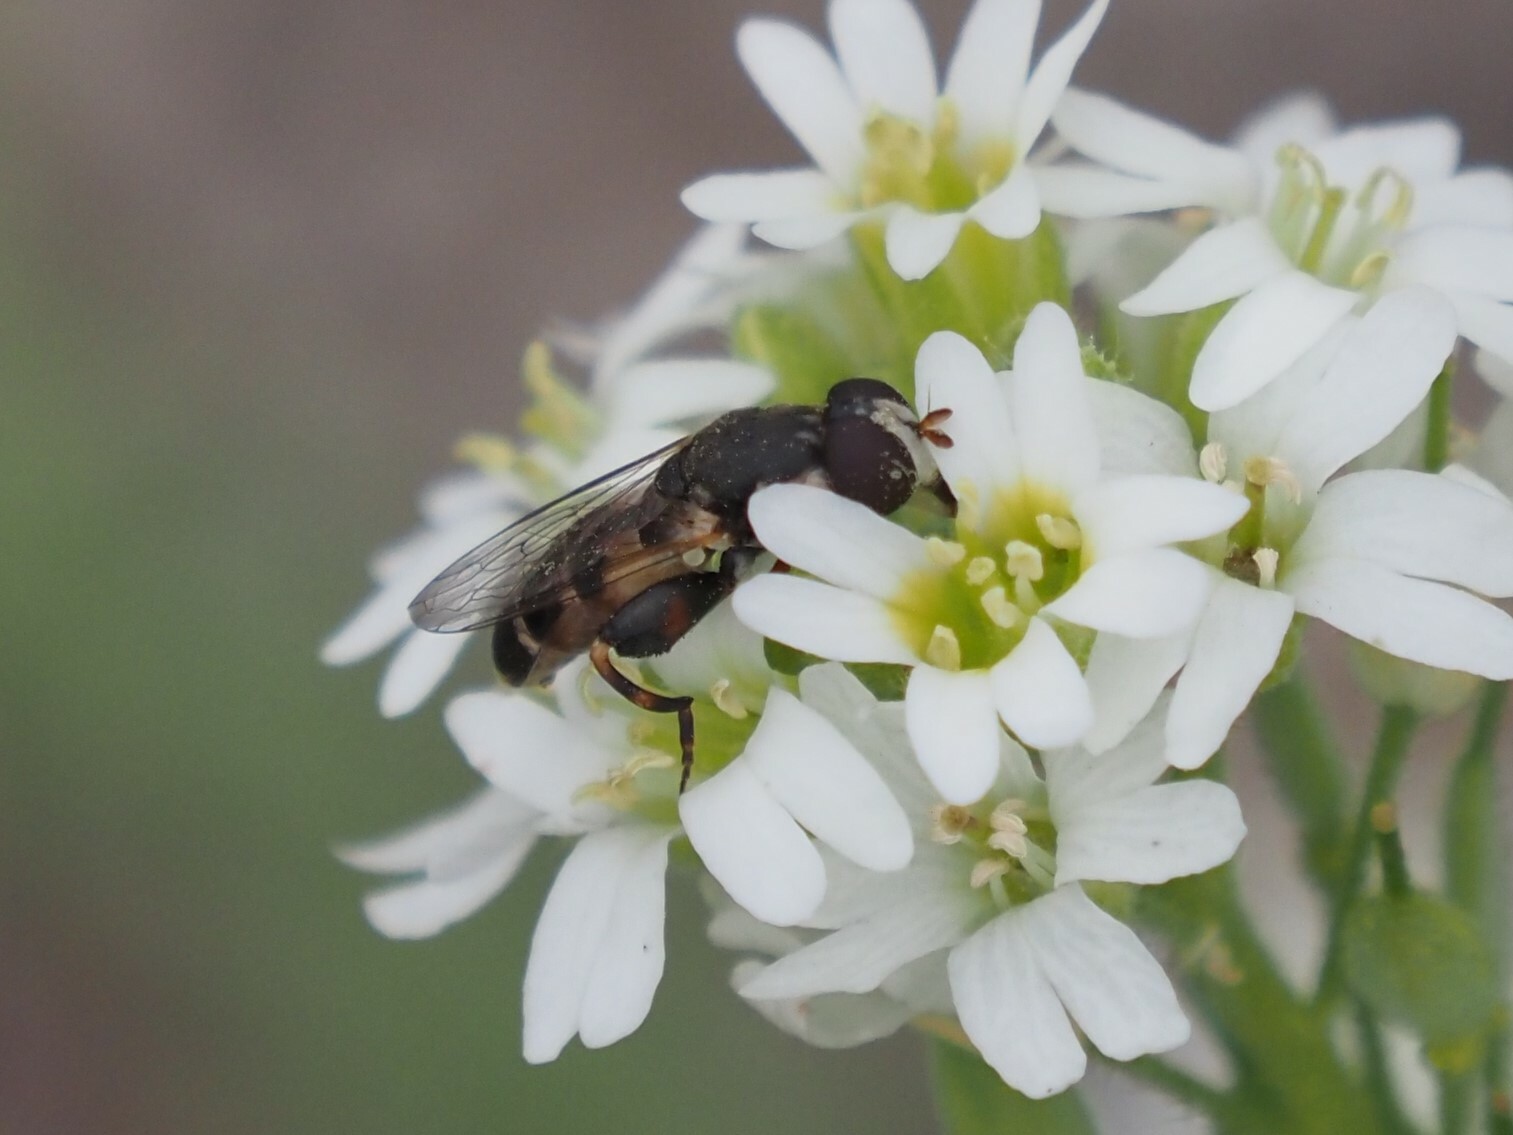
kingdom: Animalia
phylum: Arthropoda
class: Insecta
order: Diptera
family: Syrphidae
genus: Syritta
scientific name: Syritta pipiens
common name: Hover fly
